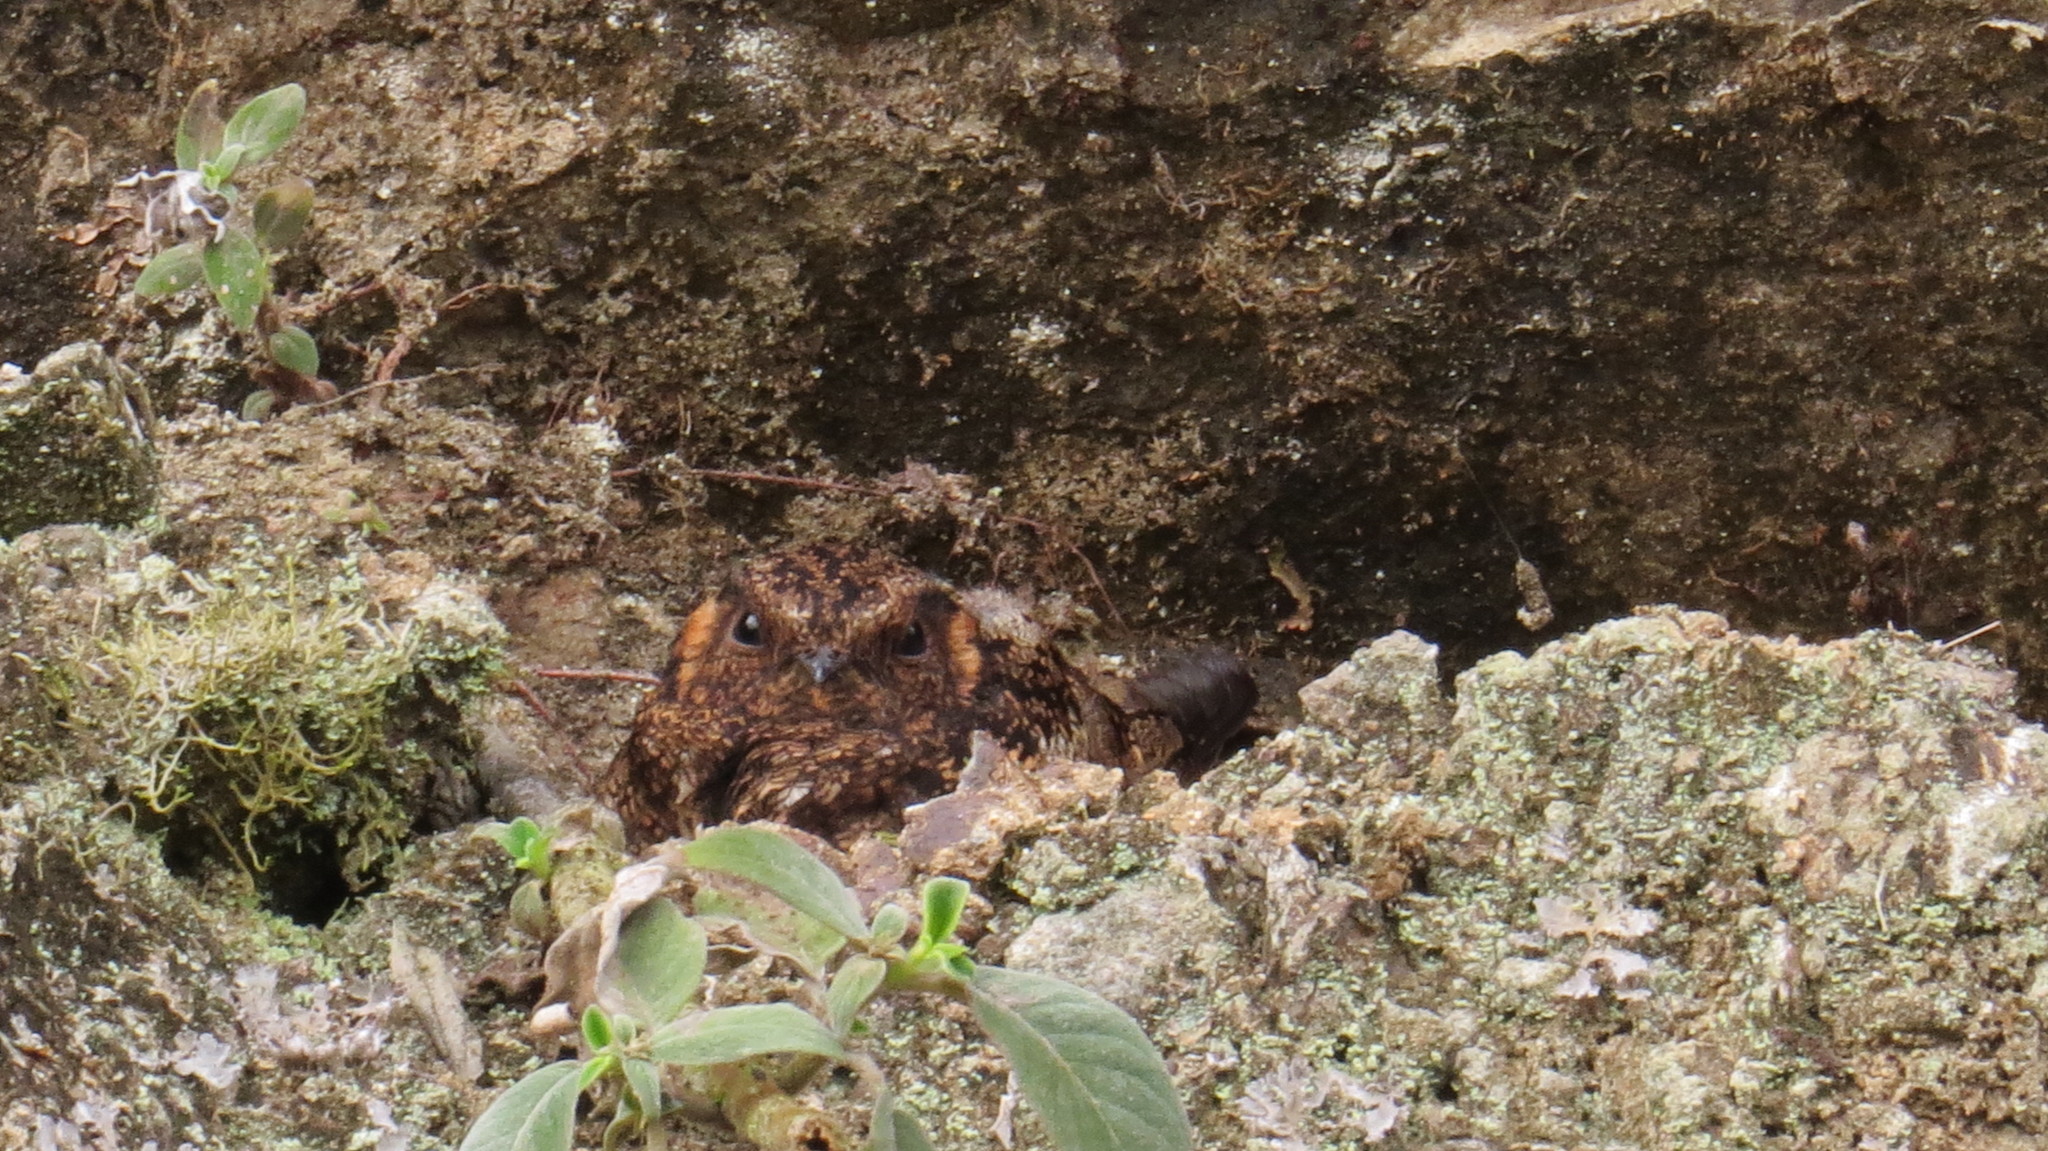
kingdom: Animalia
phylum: Chordata
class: Aves
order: Caprimulgiformes
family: Caprimulgidae
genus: Uropsalis
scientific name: Uropsalis lyra
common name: Lyre-tailed nightjar
